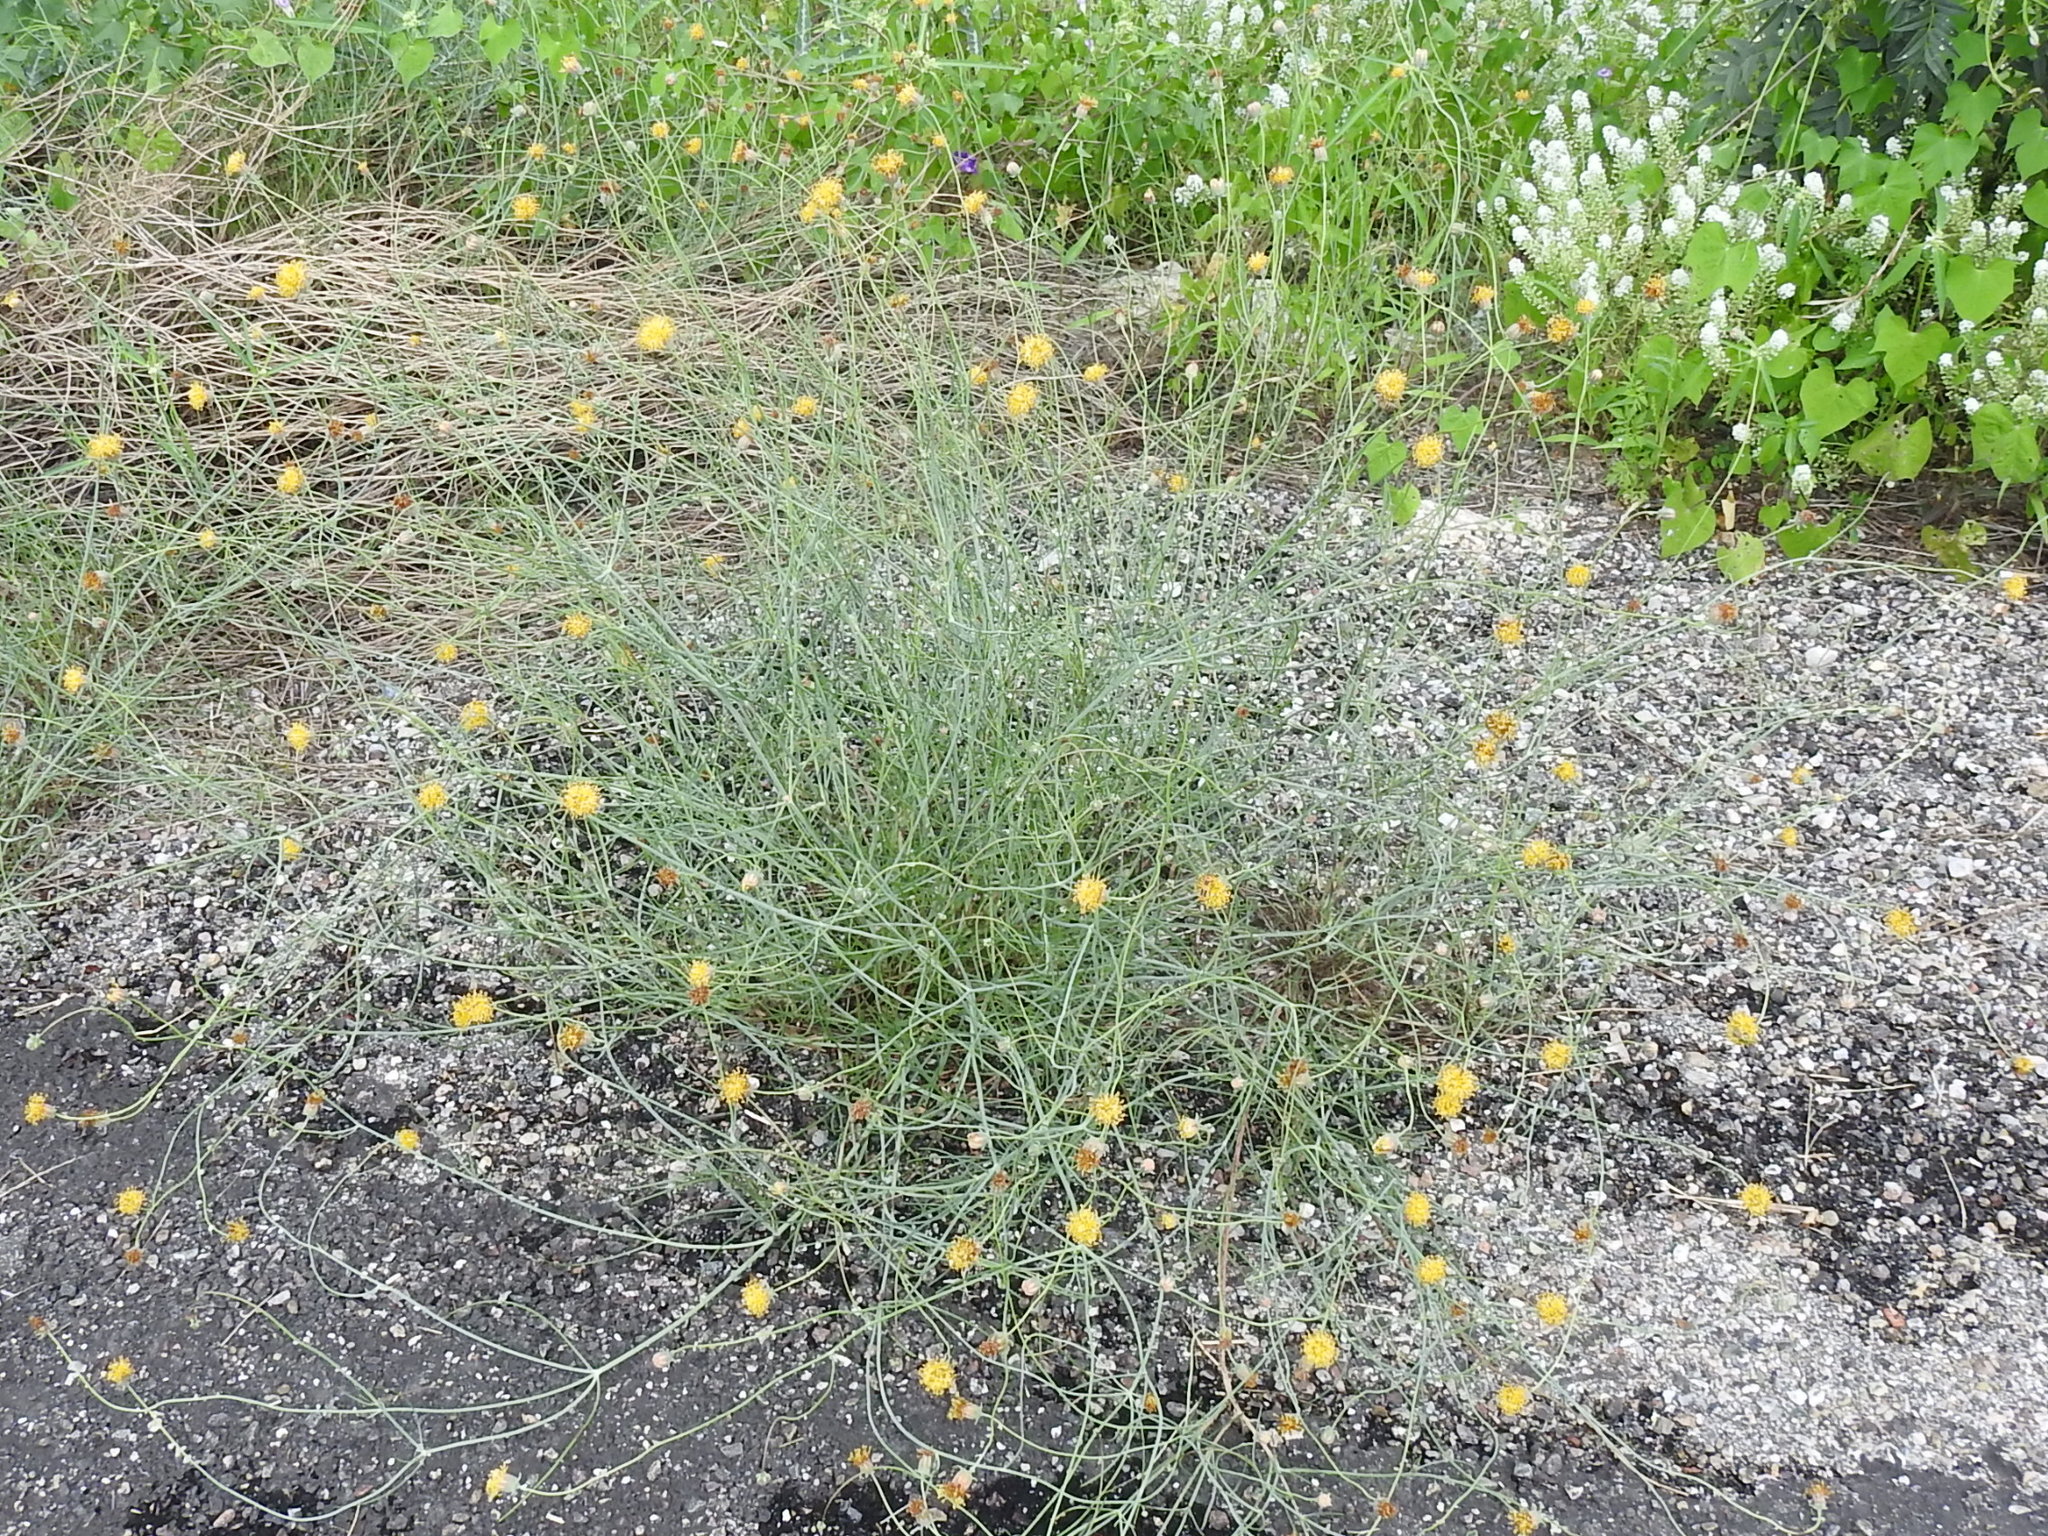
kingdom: Plantae
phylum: Tracheophyta
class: Magnoliopsida
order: Asterales
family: Asteraceae
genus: Thelesperma
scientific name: Thelesperma megapotamicum
